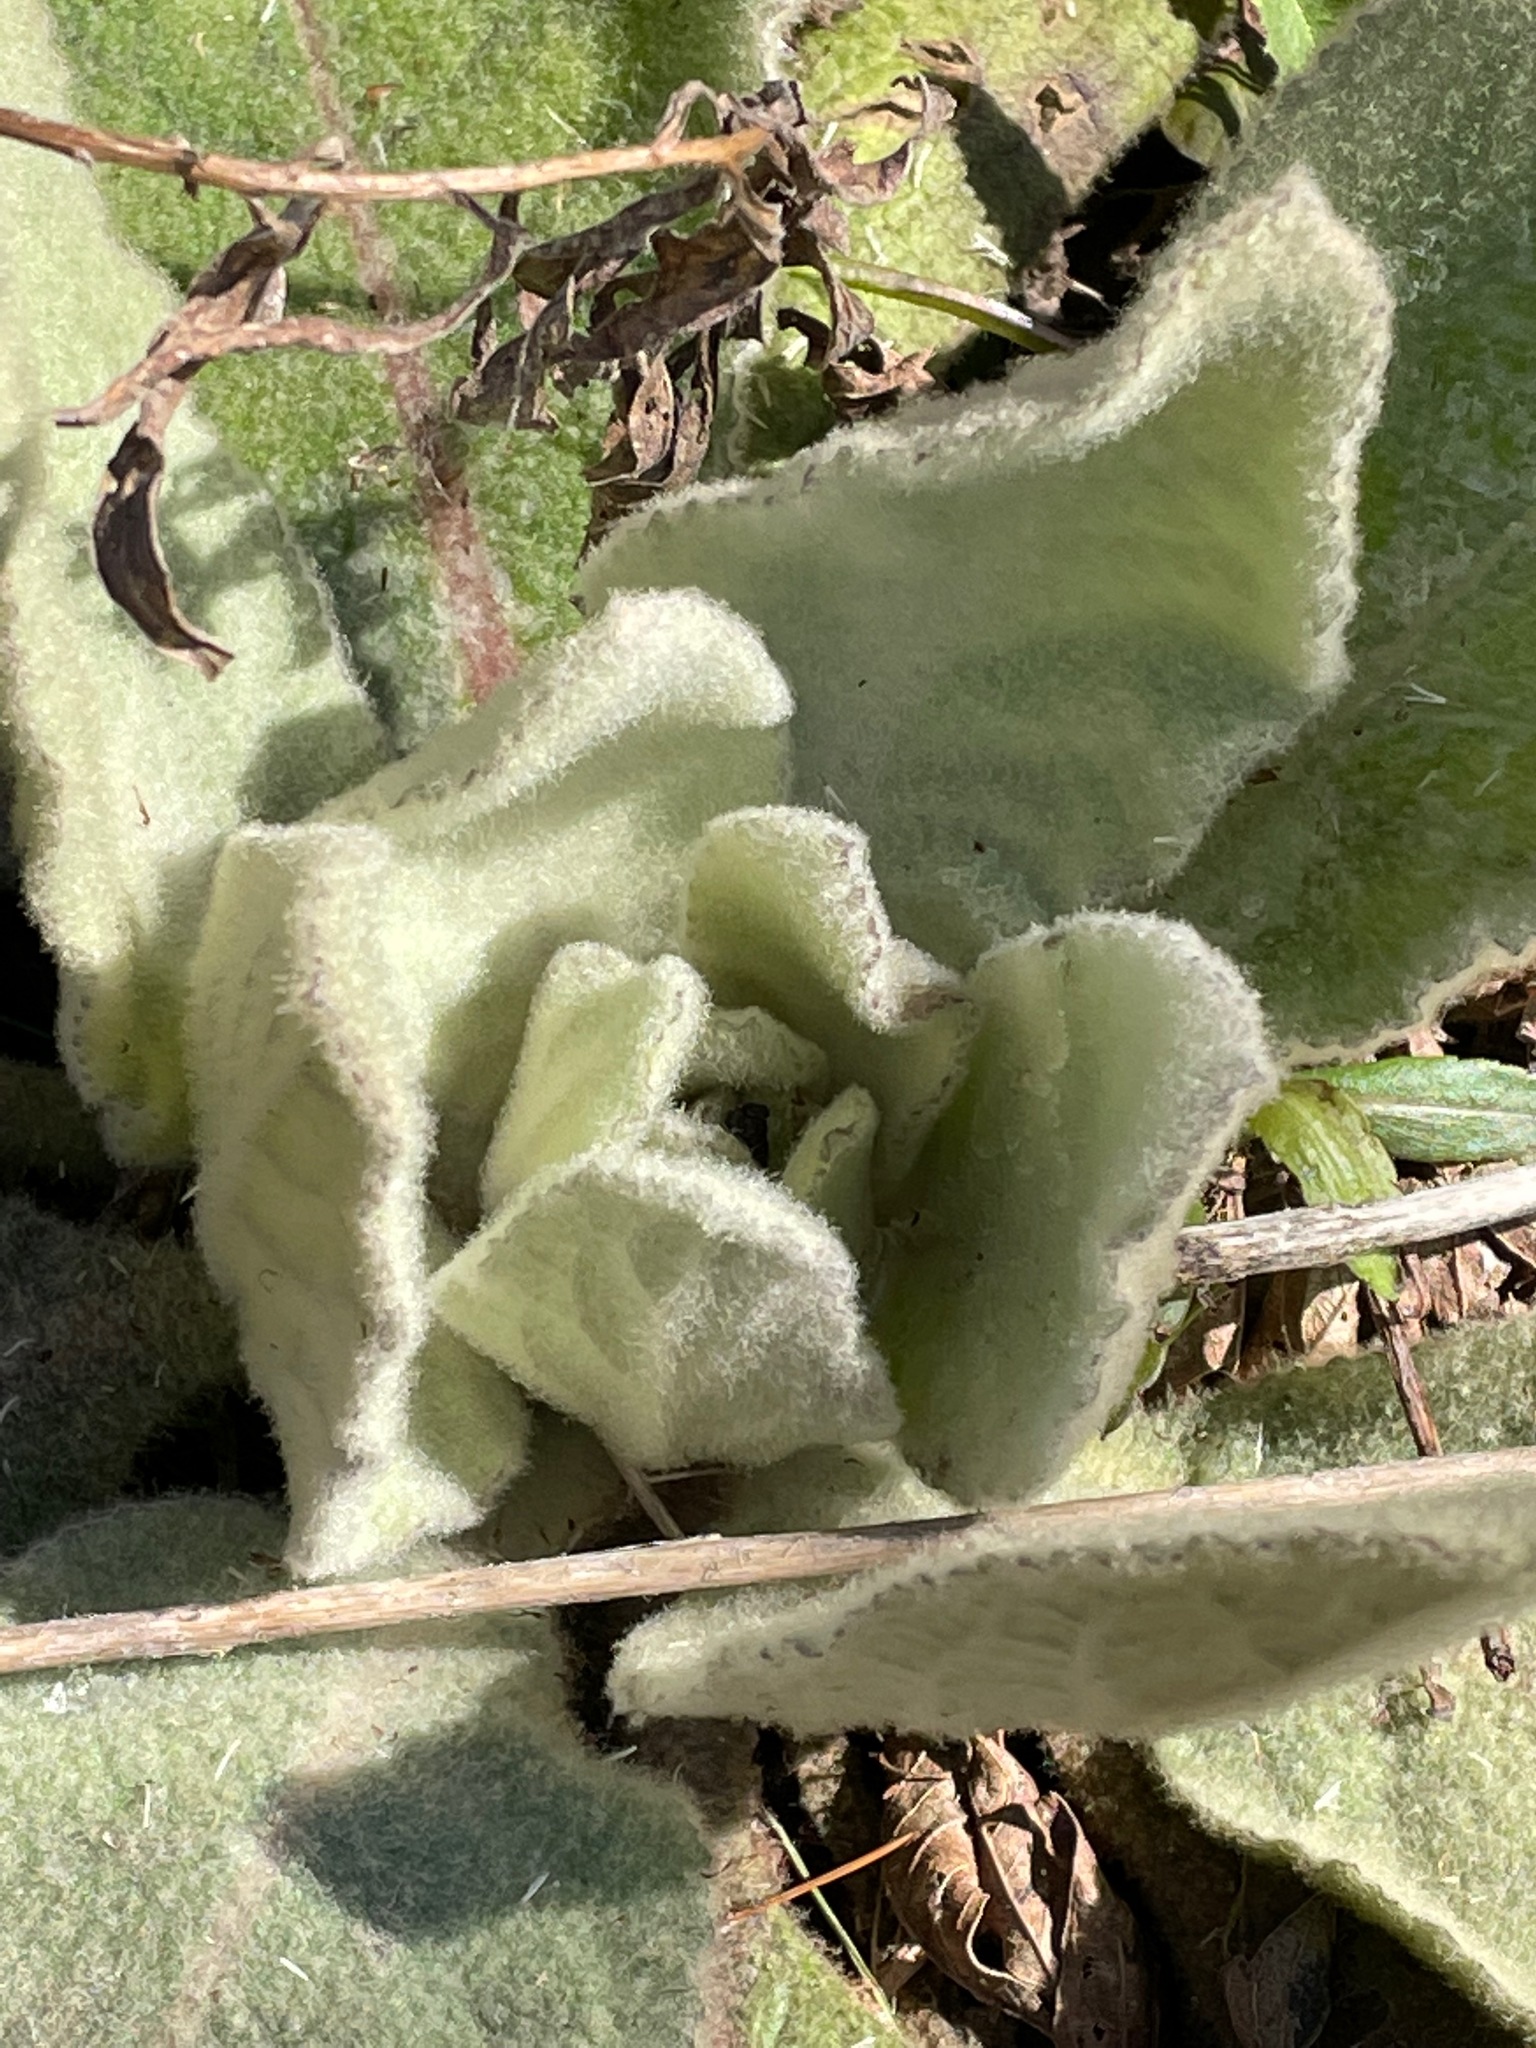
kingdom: Plantae
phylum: Tracheophyta
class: Magnoliopsida
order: Lamiales
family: Scrophulariaceae
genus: Verbascum
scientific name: Verbascum thapsus
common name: Common mullein
